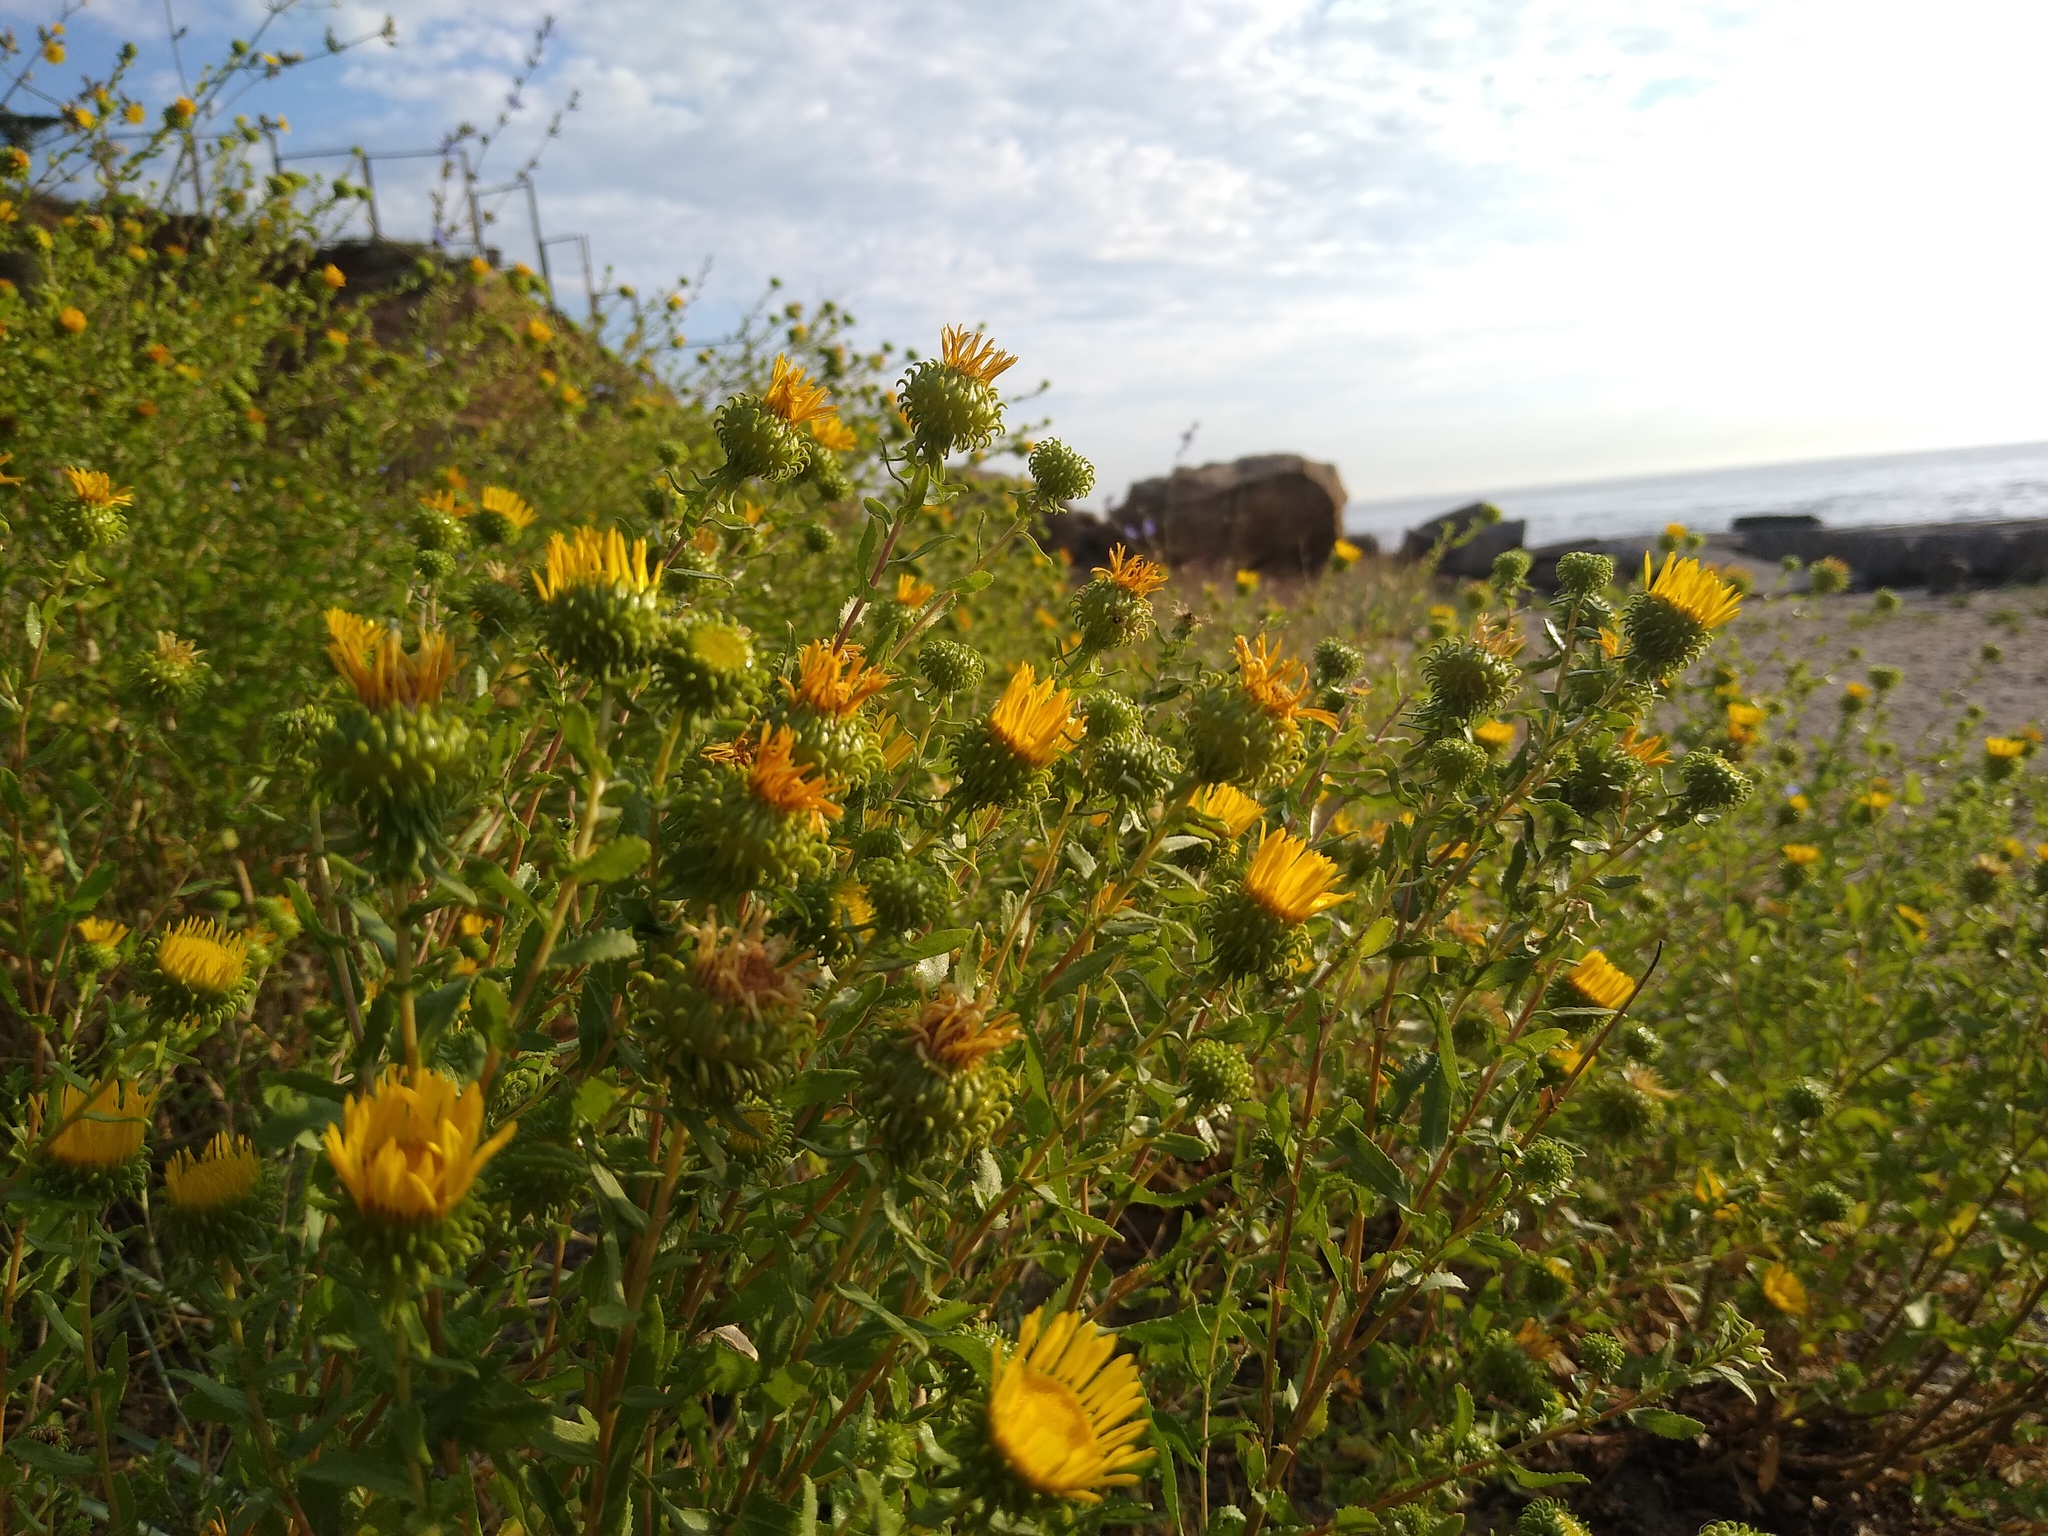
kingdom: Plantae
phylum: Tracheophyta
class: Magnoliopsida
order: Asterales
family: Asteraceae
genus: Grindelia
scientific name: Grindelia squarrosa
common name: Curly-cup gumweed
